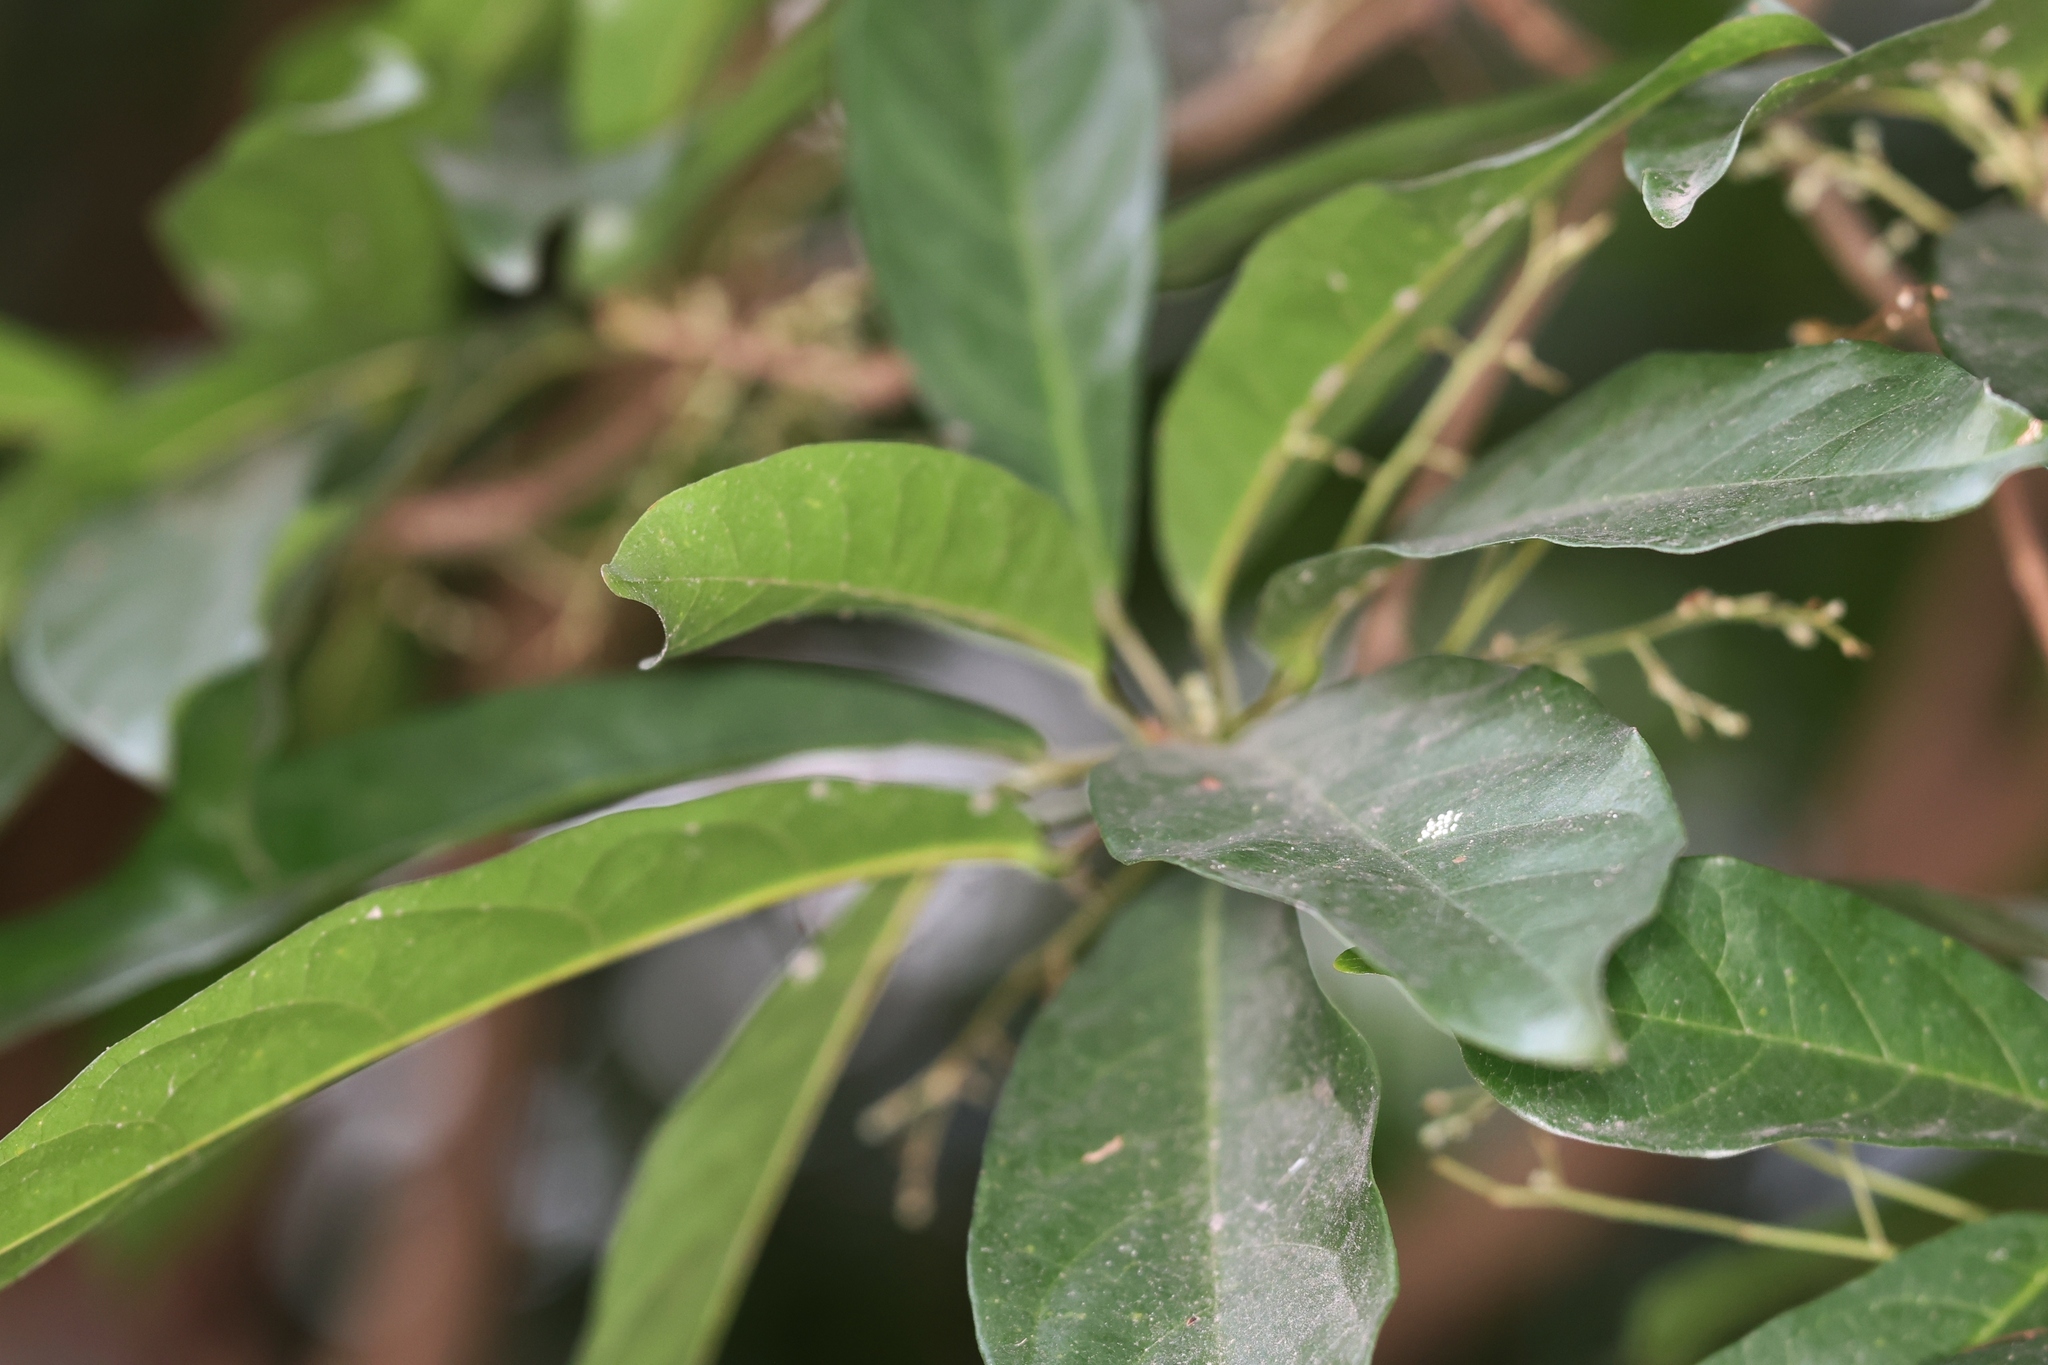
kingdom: Plantae
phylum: Tracheophyta
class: Magnoliopsida
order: Malvales
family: Malvaceae
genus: Sterculia
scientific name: Sterculia lanceolata
